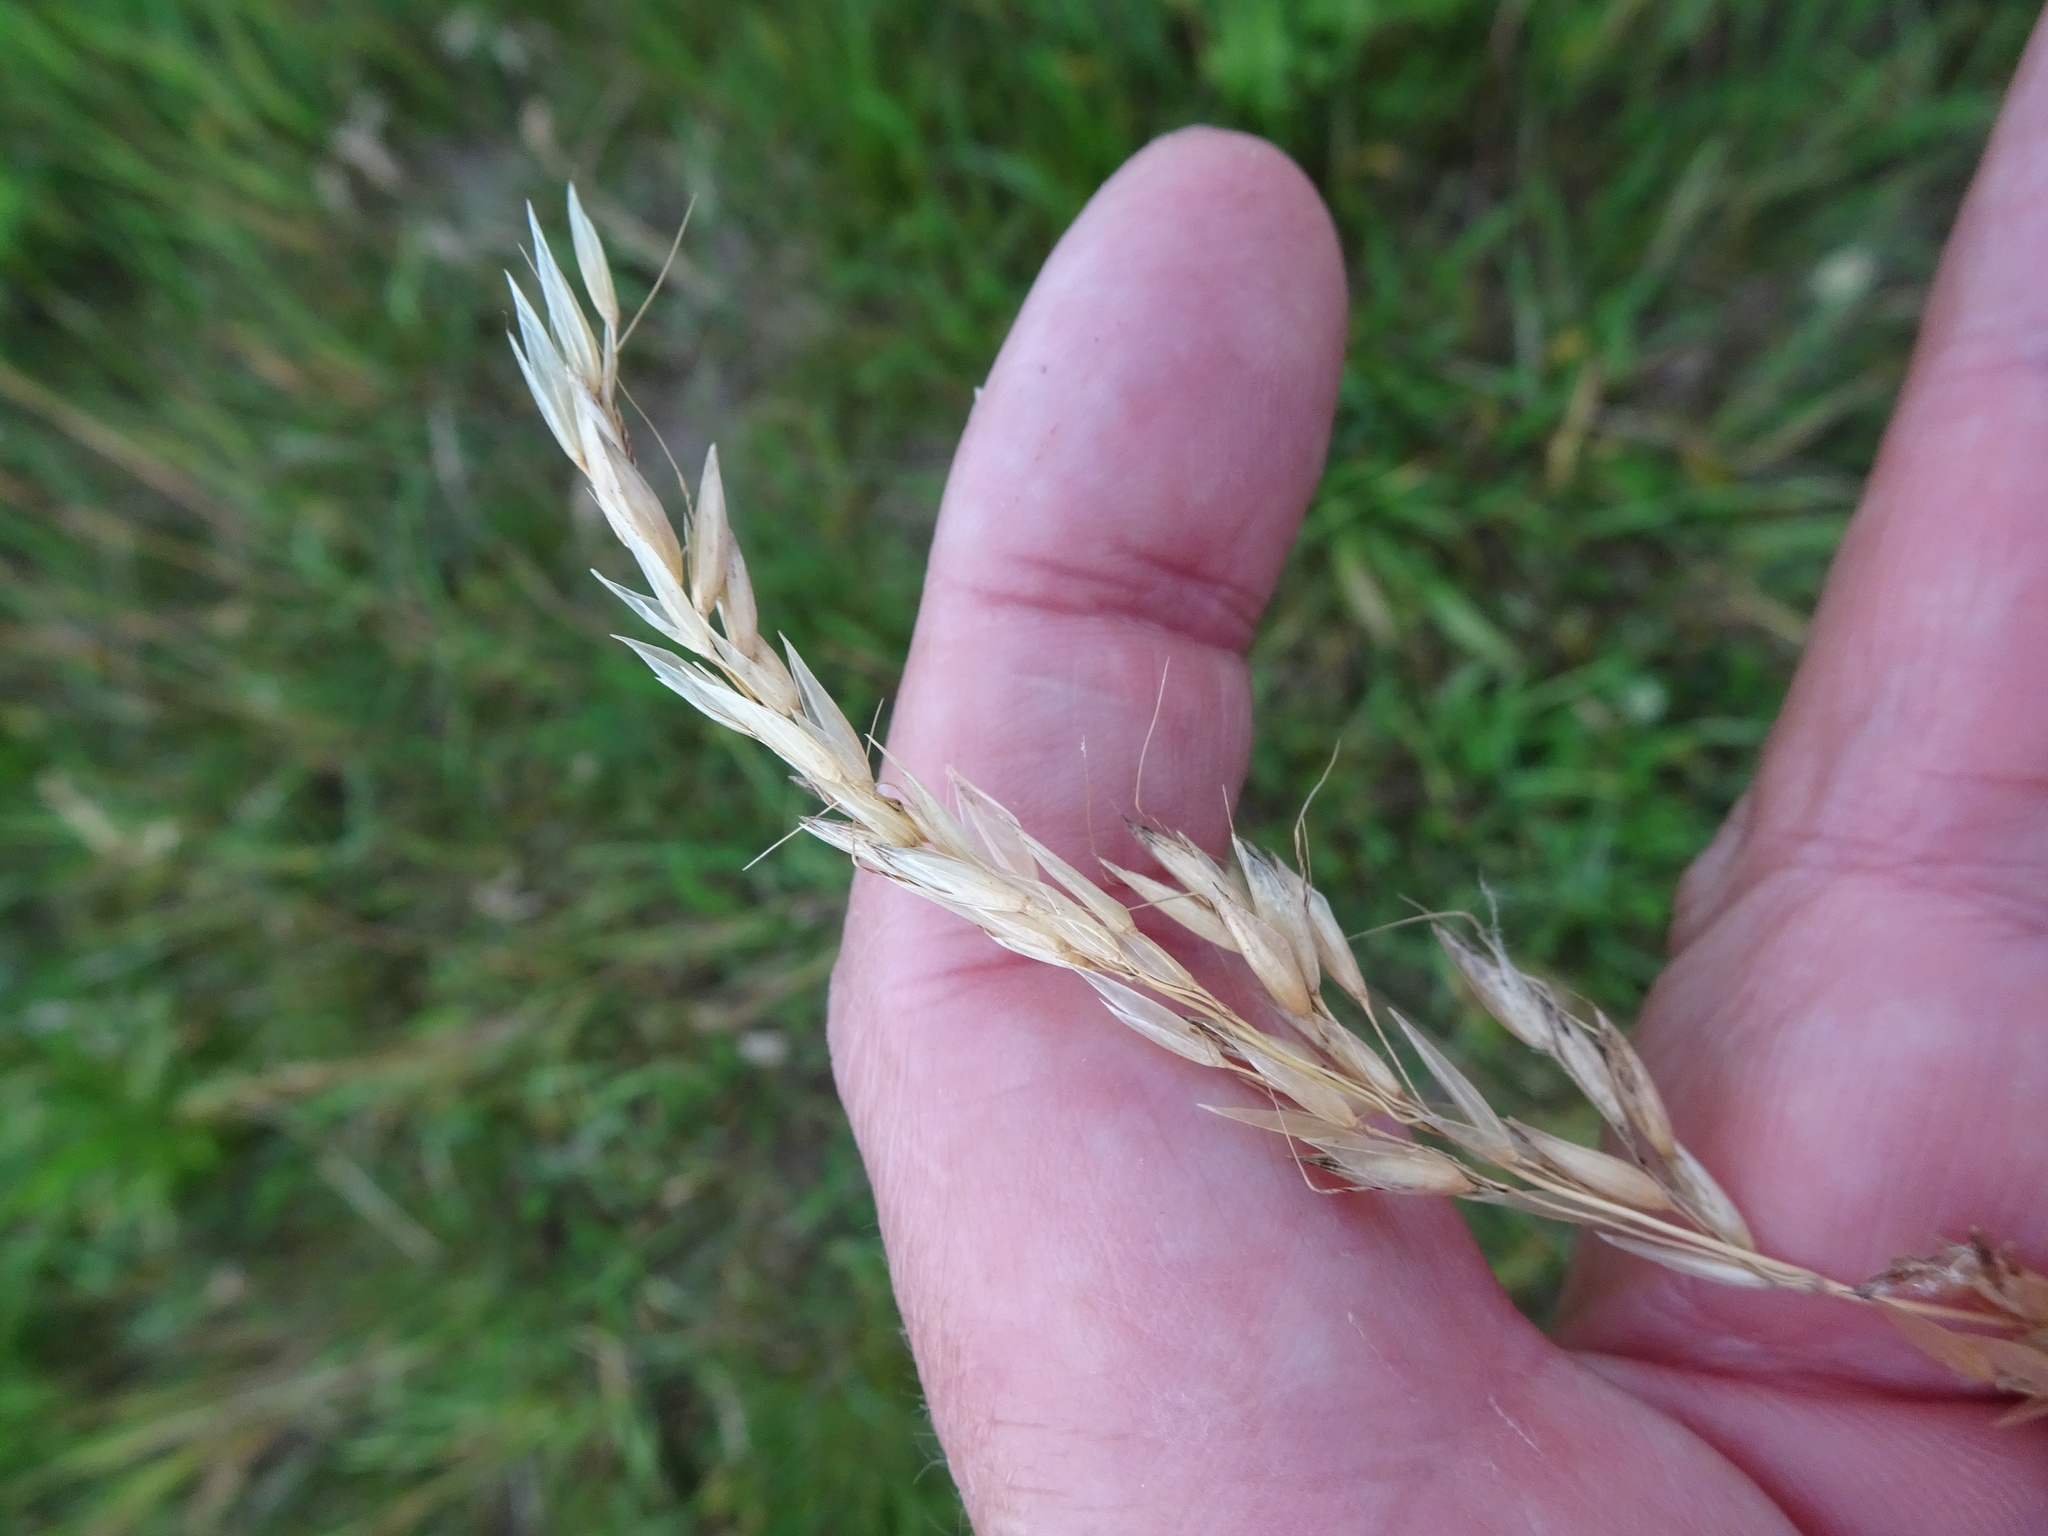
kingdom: Plantae
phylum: Tracheophyta
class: Liliopsida
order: Poales
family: Poaceae
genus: Arrhenatherum
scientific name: Arrhenatherum elatius
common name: Tall oatgrass
